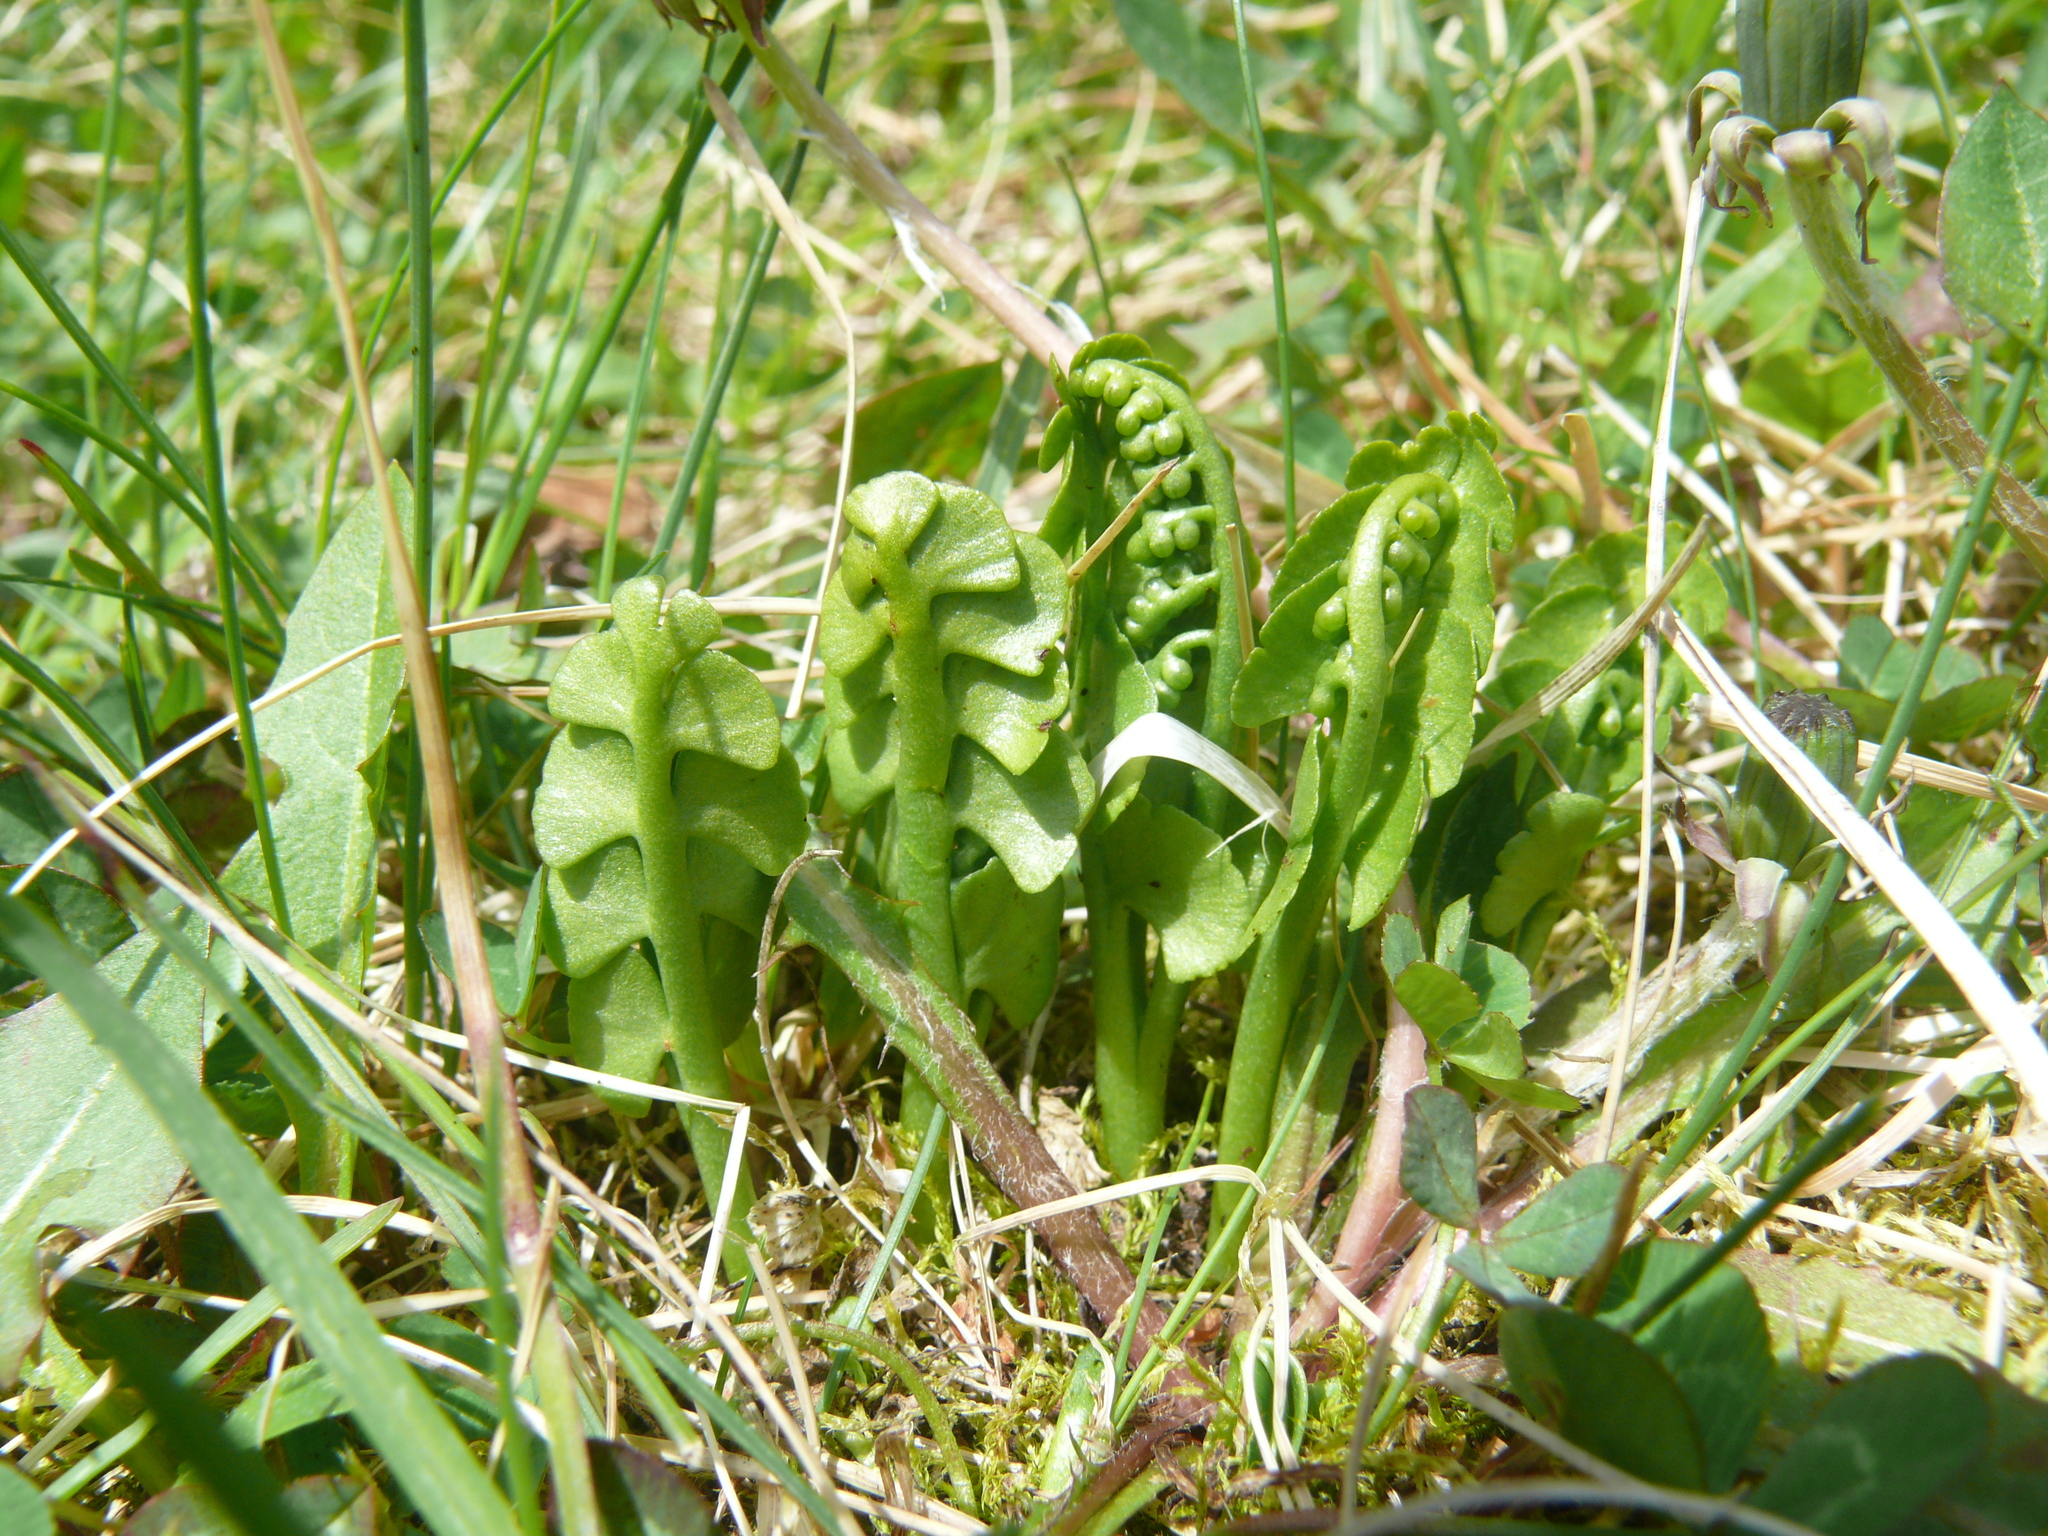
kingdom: Plantae
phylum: Tracheophyta
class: Polypodiopsida
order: Ophioglossales
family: Ophioglossaceae
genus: Botrychium
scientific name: Botrychium lunaria
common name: Moonwort
